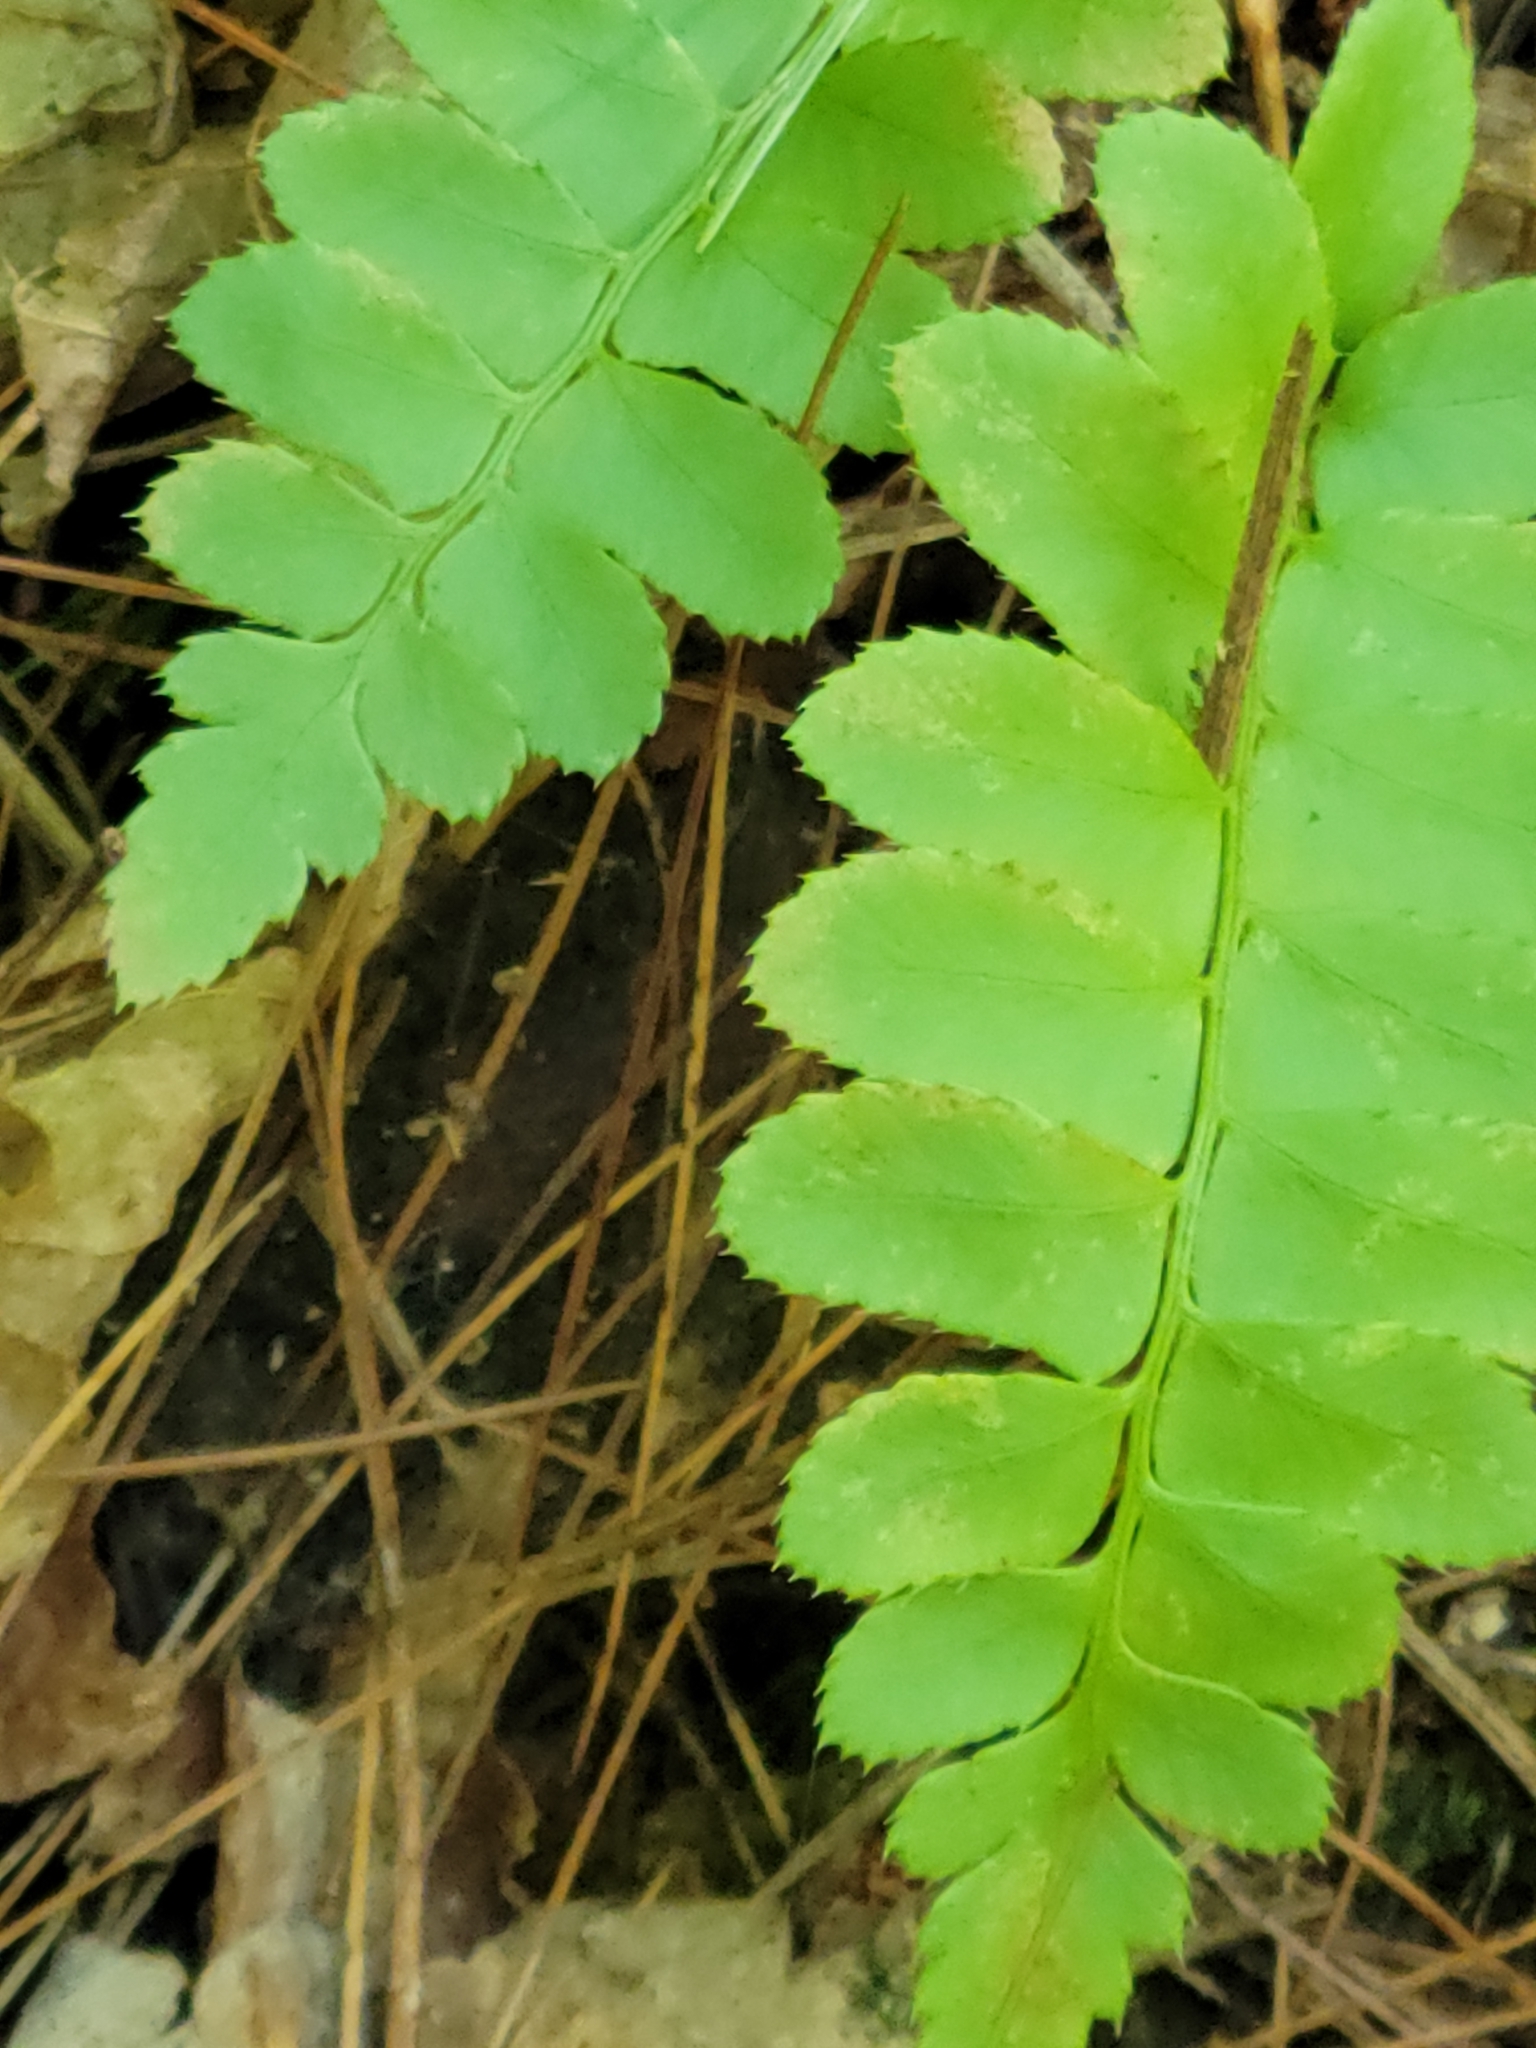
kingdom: Plantae
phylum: Tracheophyta
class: Polypodiopsida
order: Polypodiales
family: Dryopteridaceae
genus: Polystichum
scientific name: Polystichum acrostichoides
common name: Christmas fern
